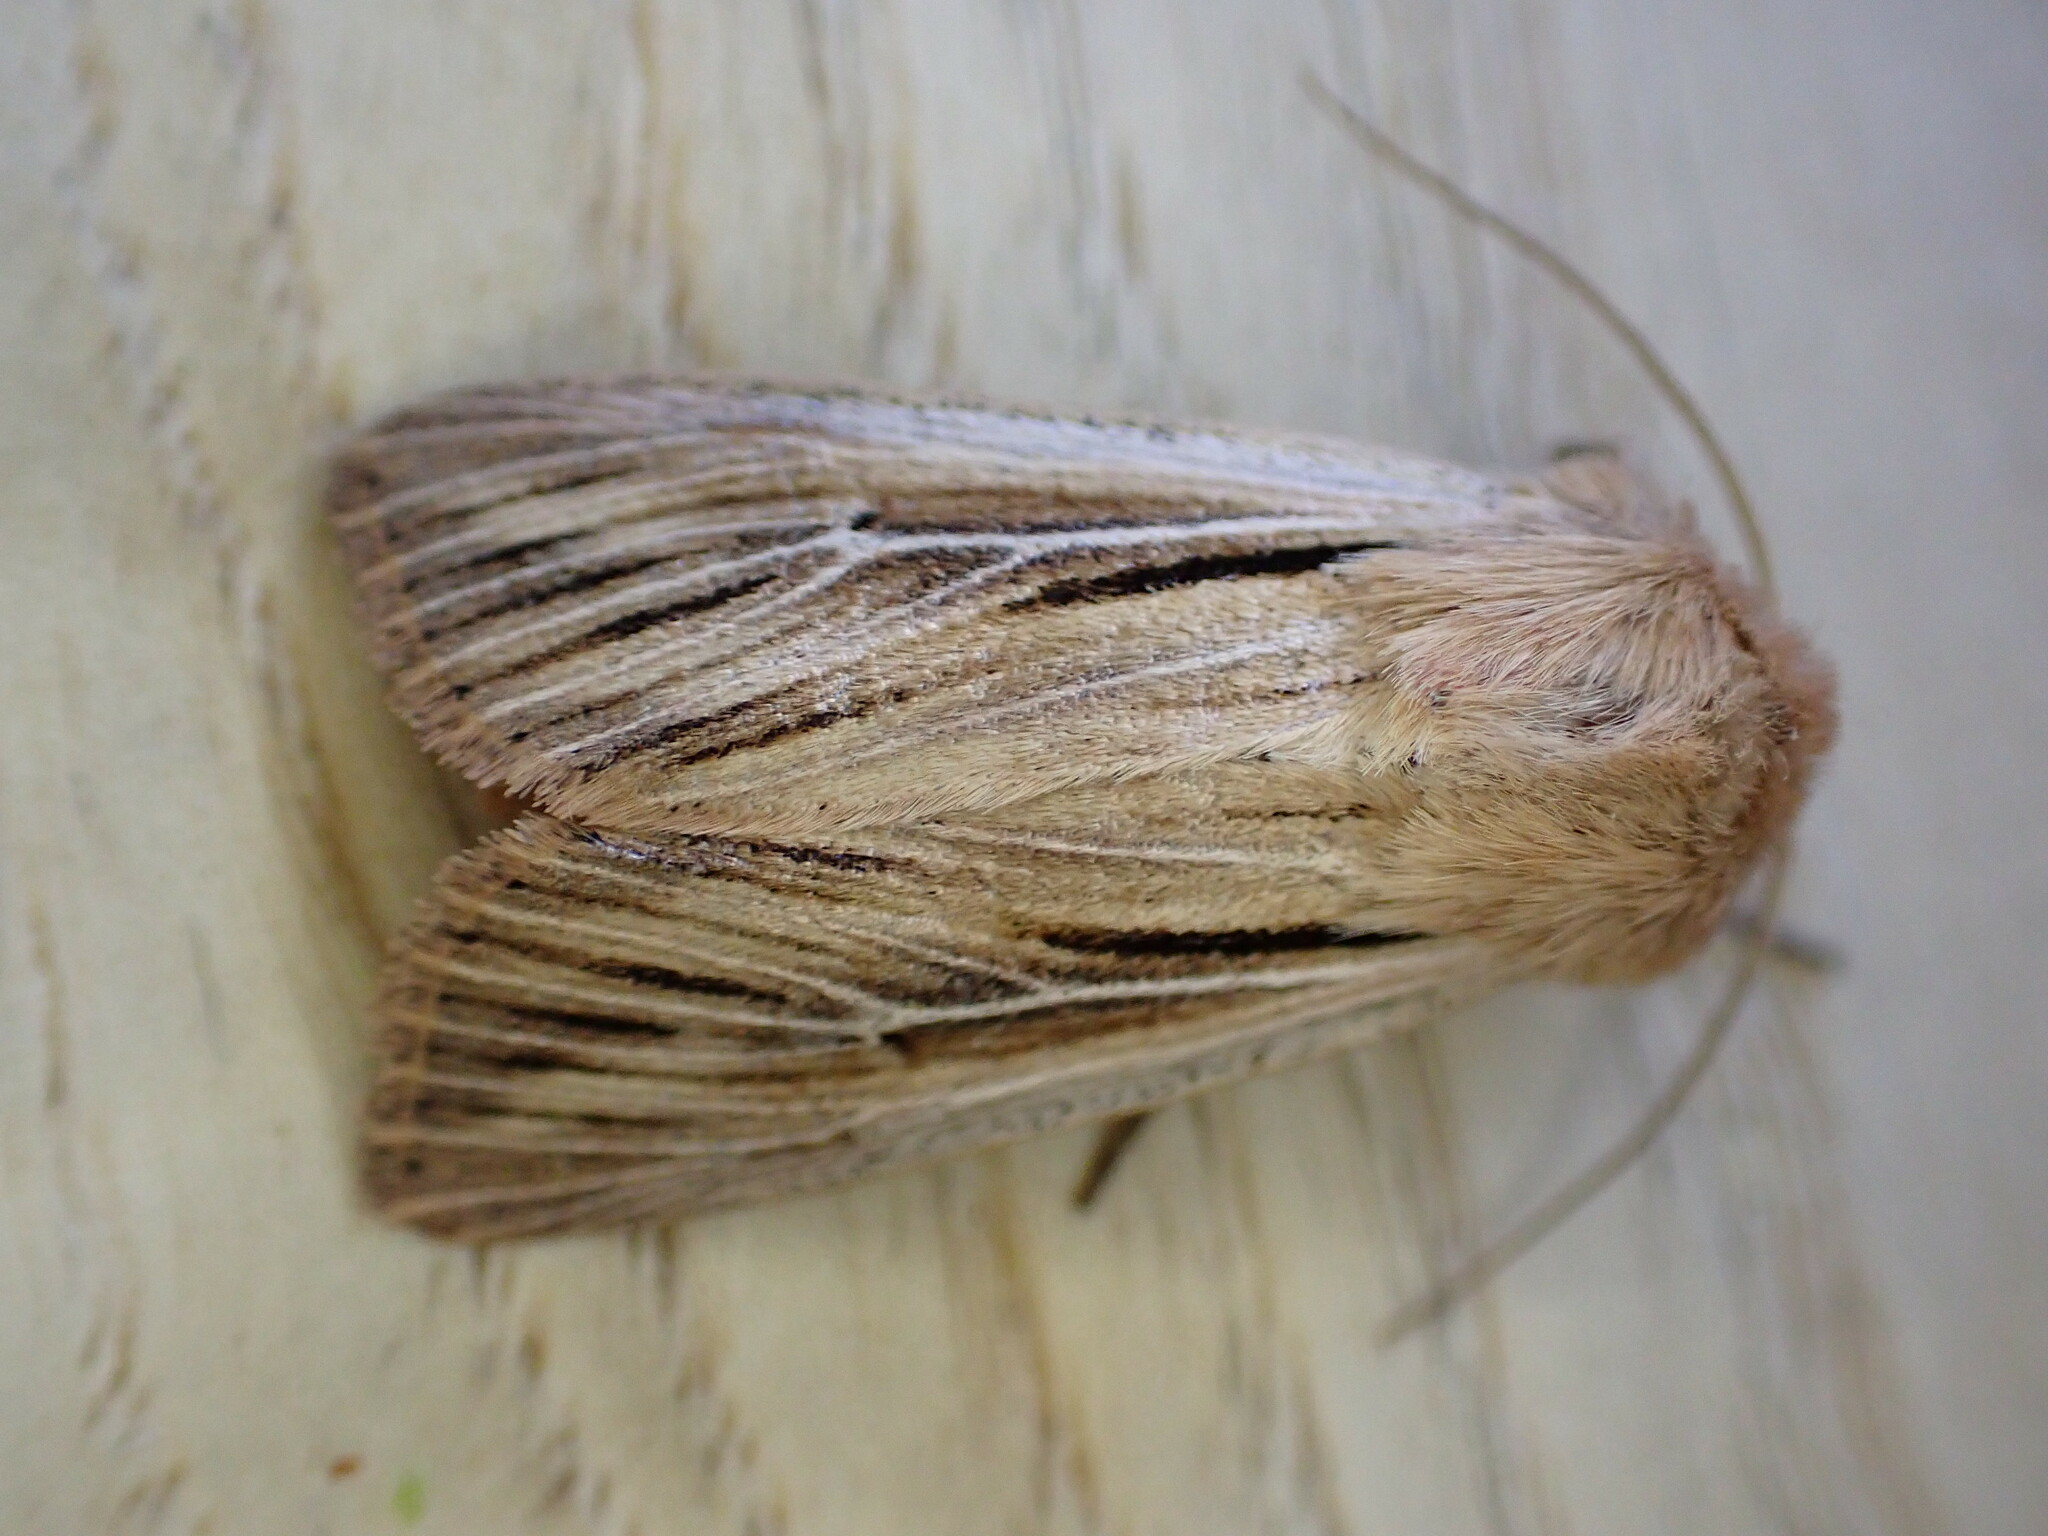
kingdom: Animalia
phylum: Arthropoda
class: Insecta
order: Lepidoptera
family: Noctuidae
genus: Leucania
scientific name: Leucania comma
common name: Shoulder-striped wainscot
